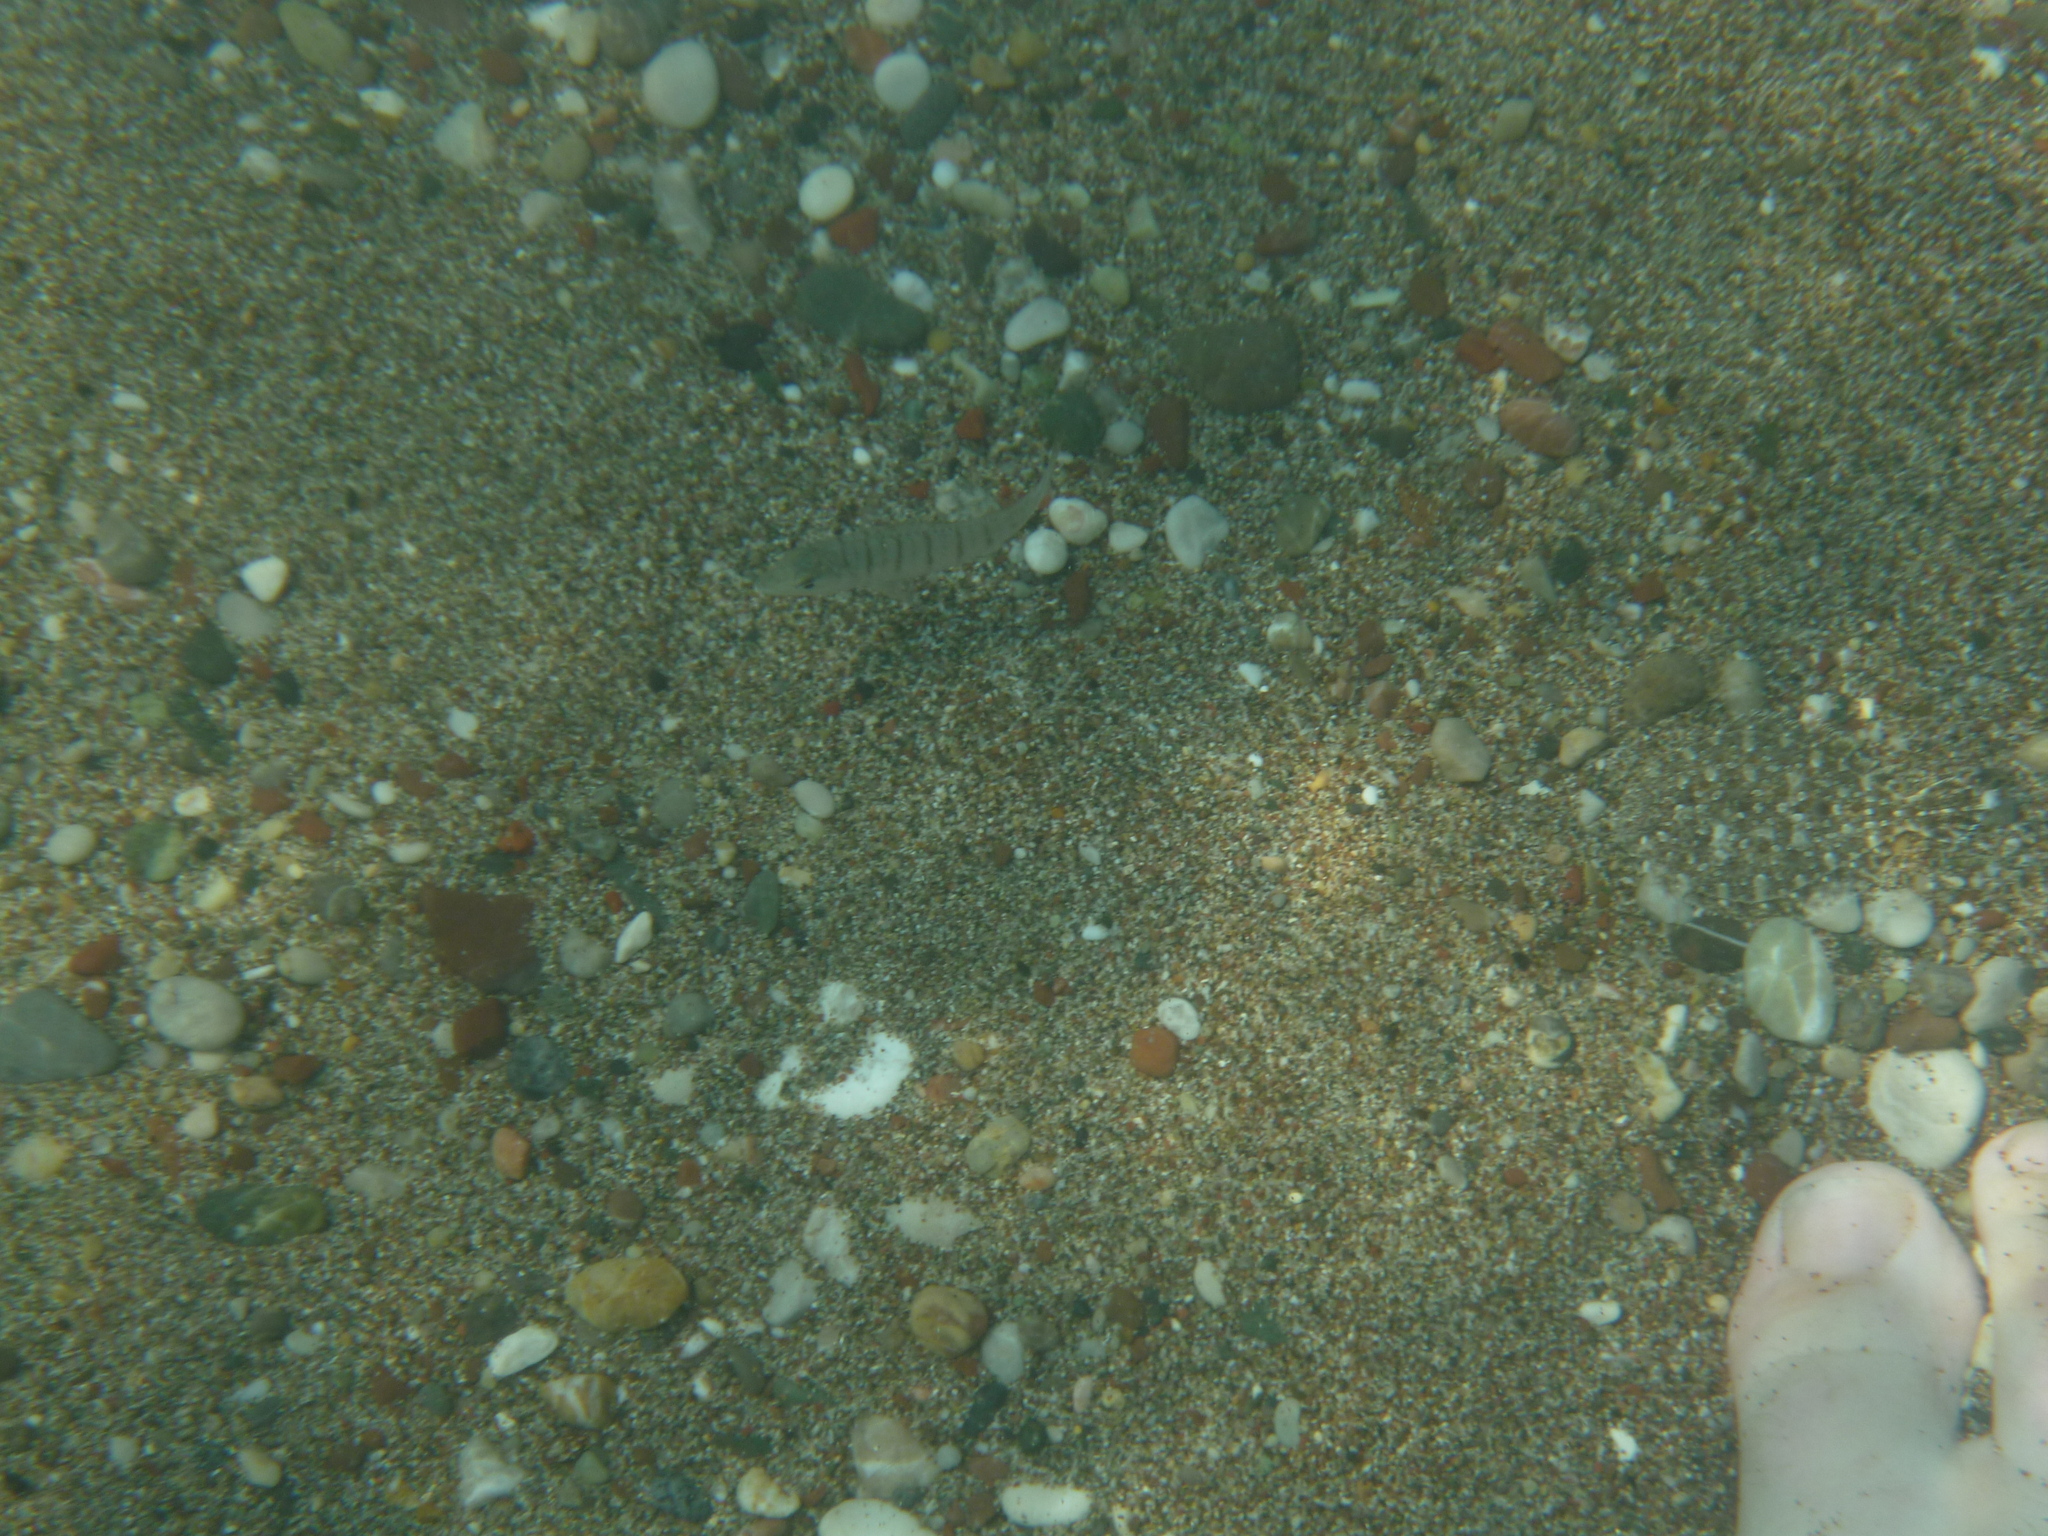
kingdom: Animalia
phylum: Chordata
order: Perciformes
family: Sparidae
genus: Lithognathus
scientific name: Lithognathus mormyrus
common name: Sand steenbras
